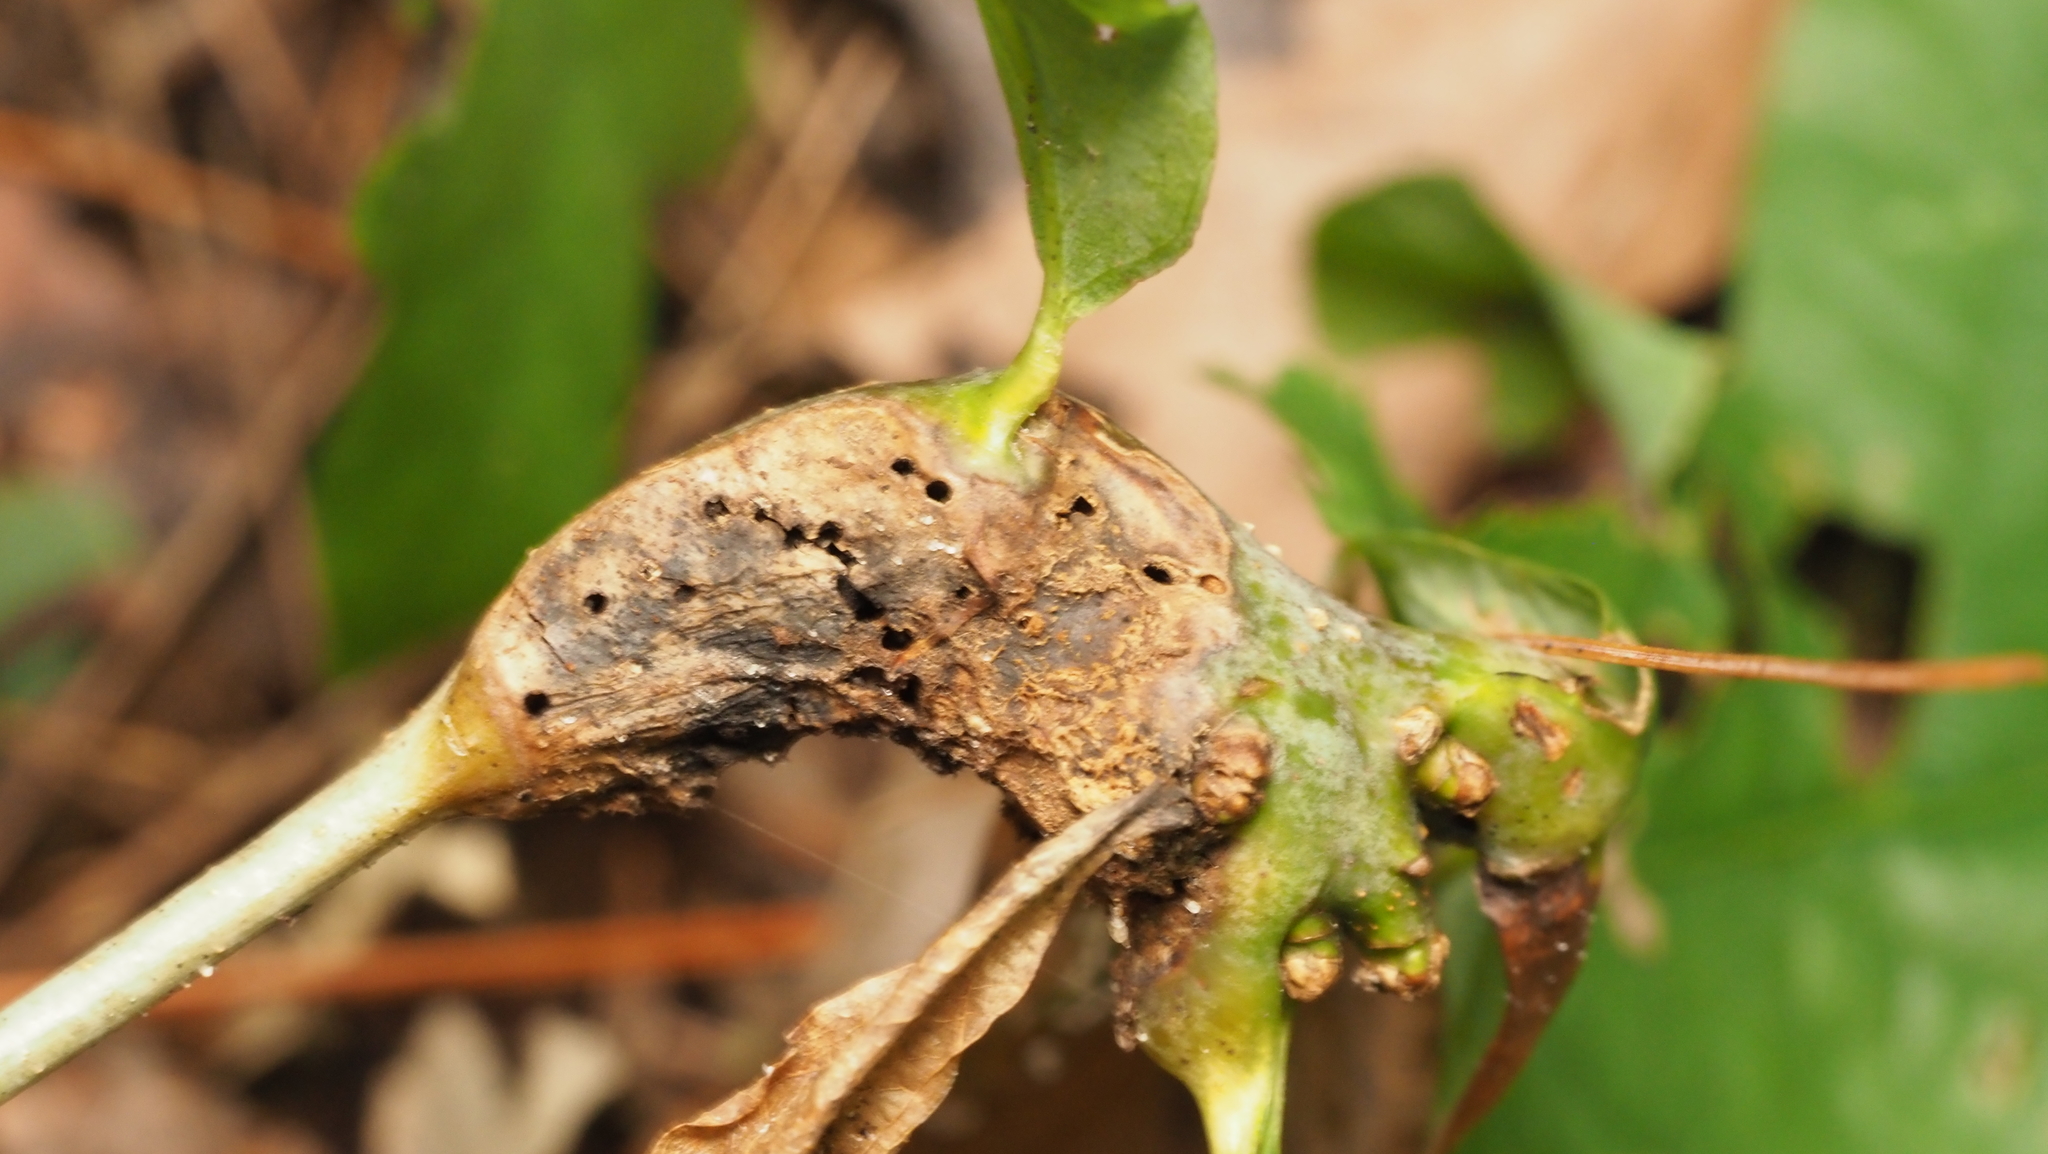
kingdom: Animalia
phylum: Arthropoda
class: Insecta
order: Hymenoptera
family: Cynipidae
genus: Neuroterus
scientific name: Neuroterus quercusbaccarum
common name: Common spangle gall
